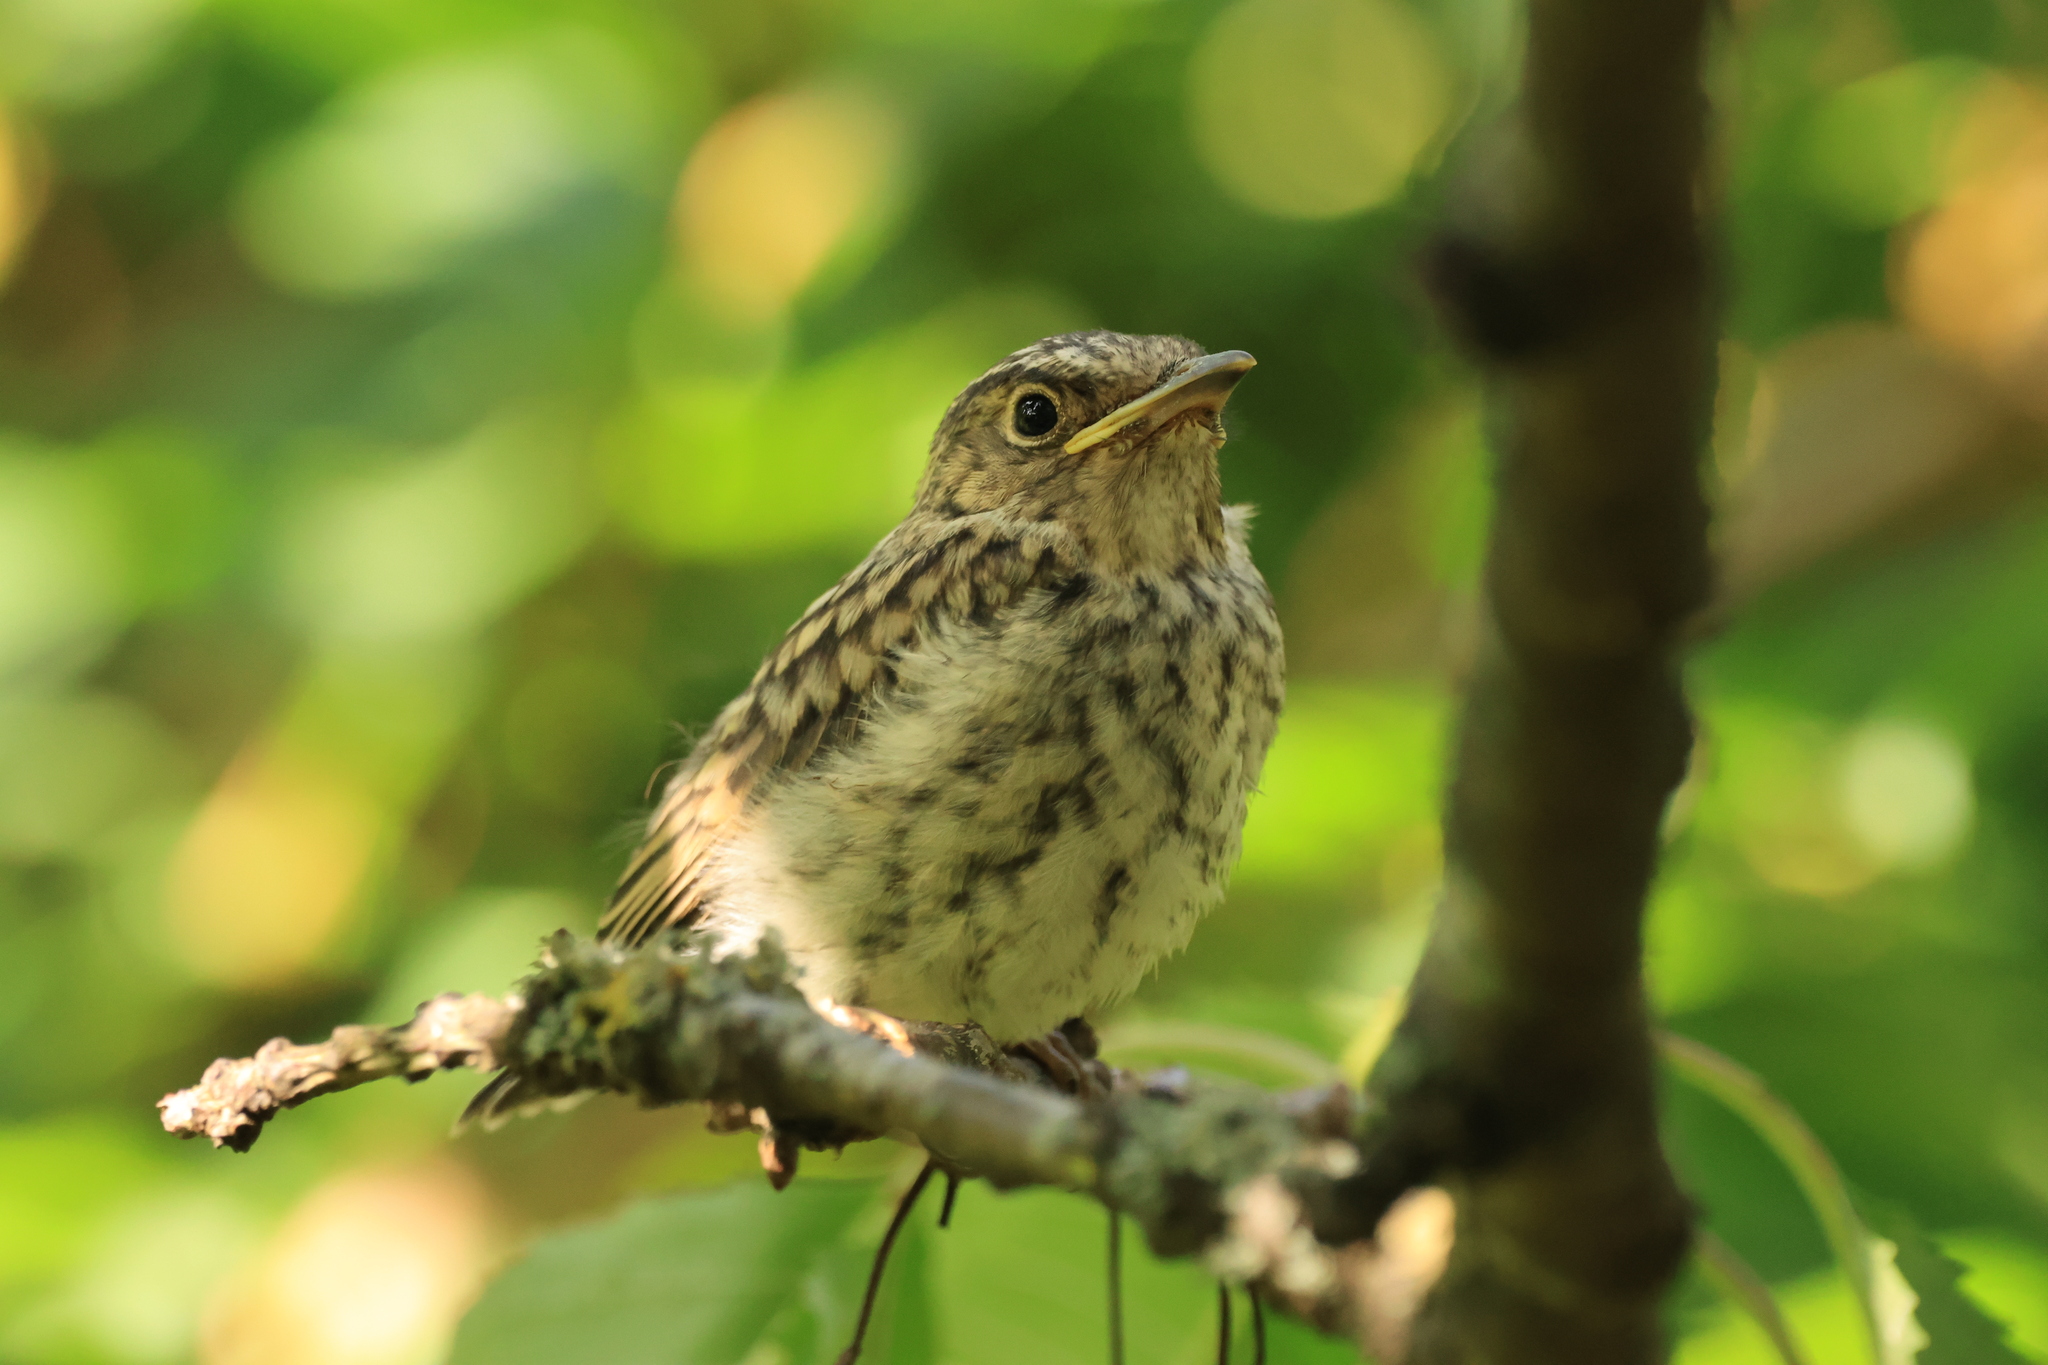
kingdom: Animalia
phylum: Chordata
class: Aves
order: Passeriformes
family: Muscicapidae
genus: Muscicapa
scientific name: Muscicapa striata
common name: Spotted flycatcher
